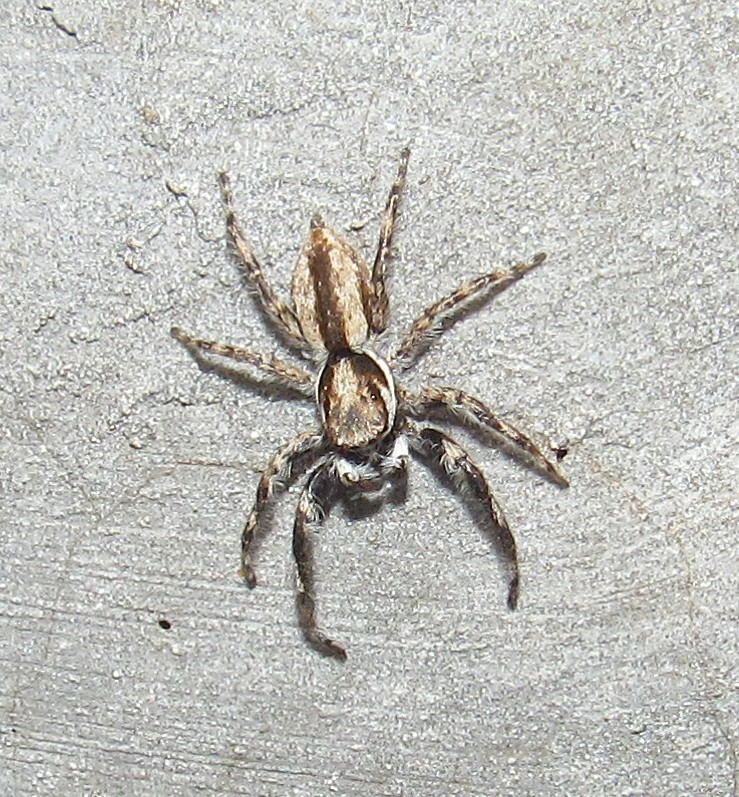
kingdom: Animalia
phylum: Arthropoda
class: Arachnida
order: Araneae
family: Salticidae
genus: Menemerus
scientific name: Menemerus bivittatus
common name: Gray wall jumper
